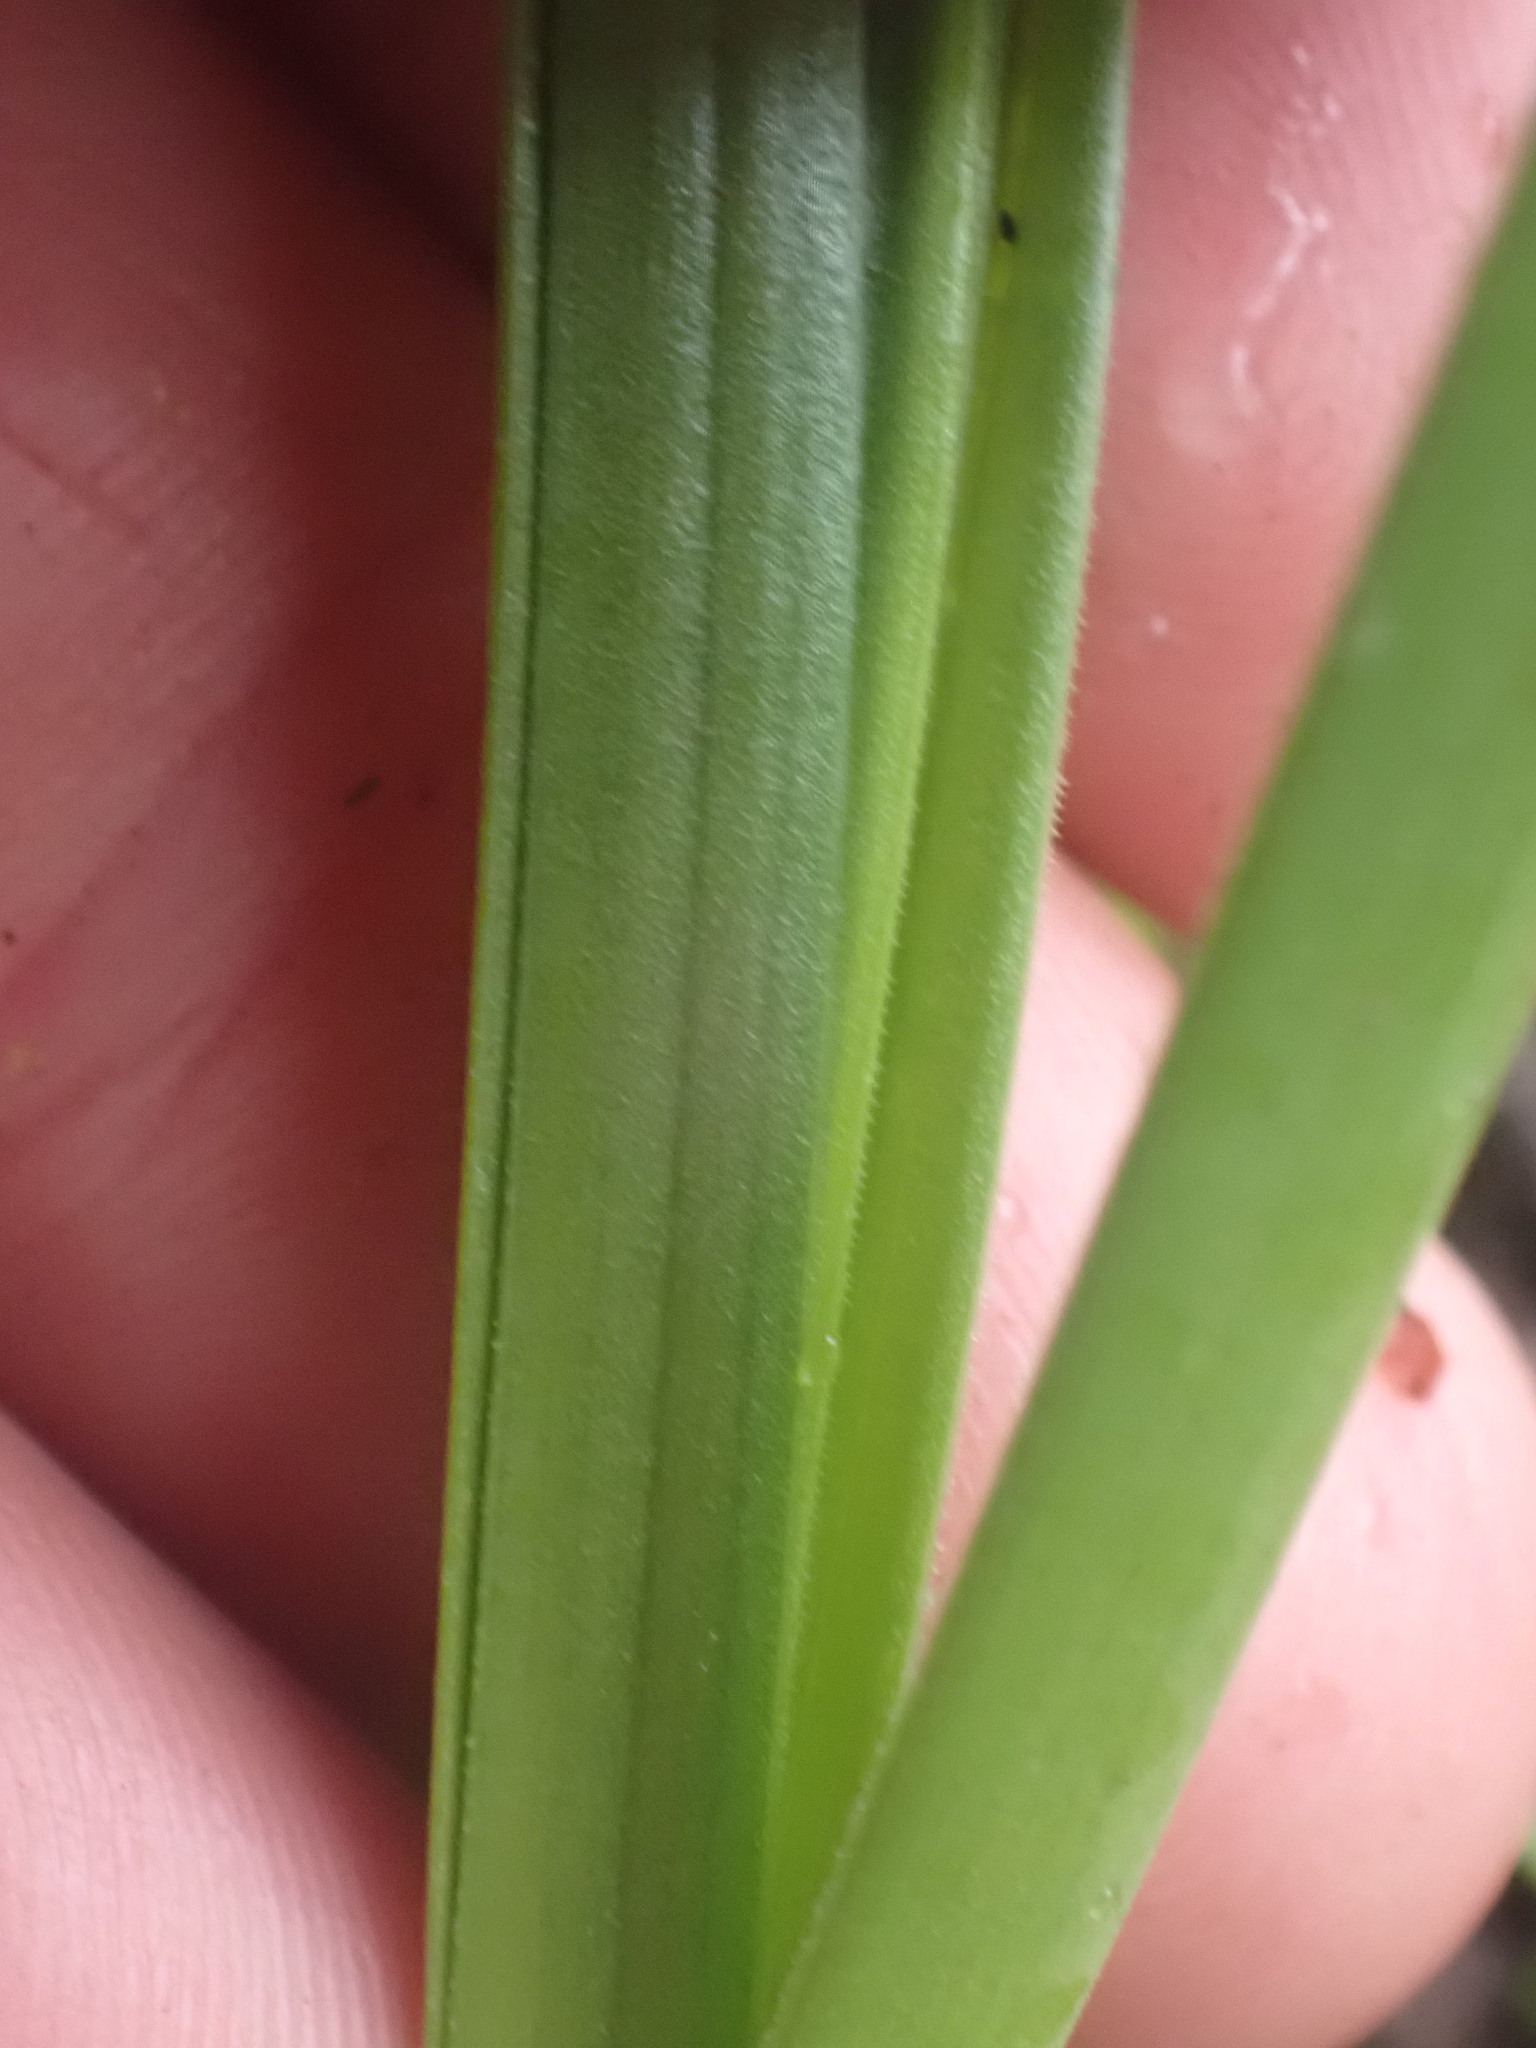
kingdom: Plantae
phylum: Tracheophyta
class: Liliopsida
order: Liliales
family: Melanthiaceae
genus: Toxicoscordion
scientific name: Toxicoscordion venenosum
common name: Meadow death camas
